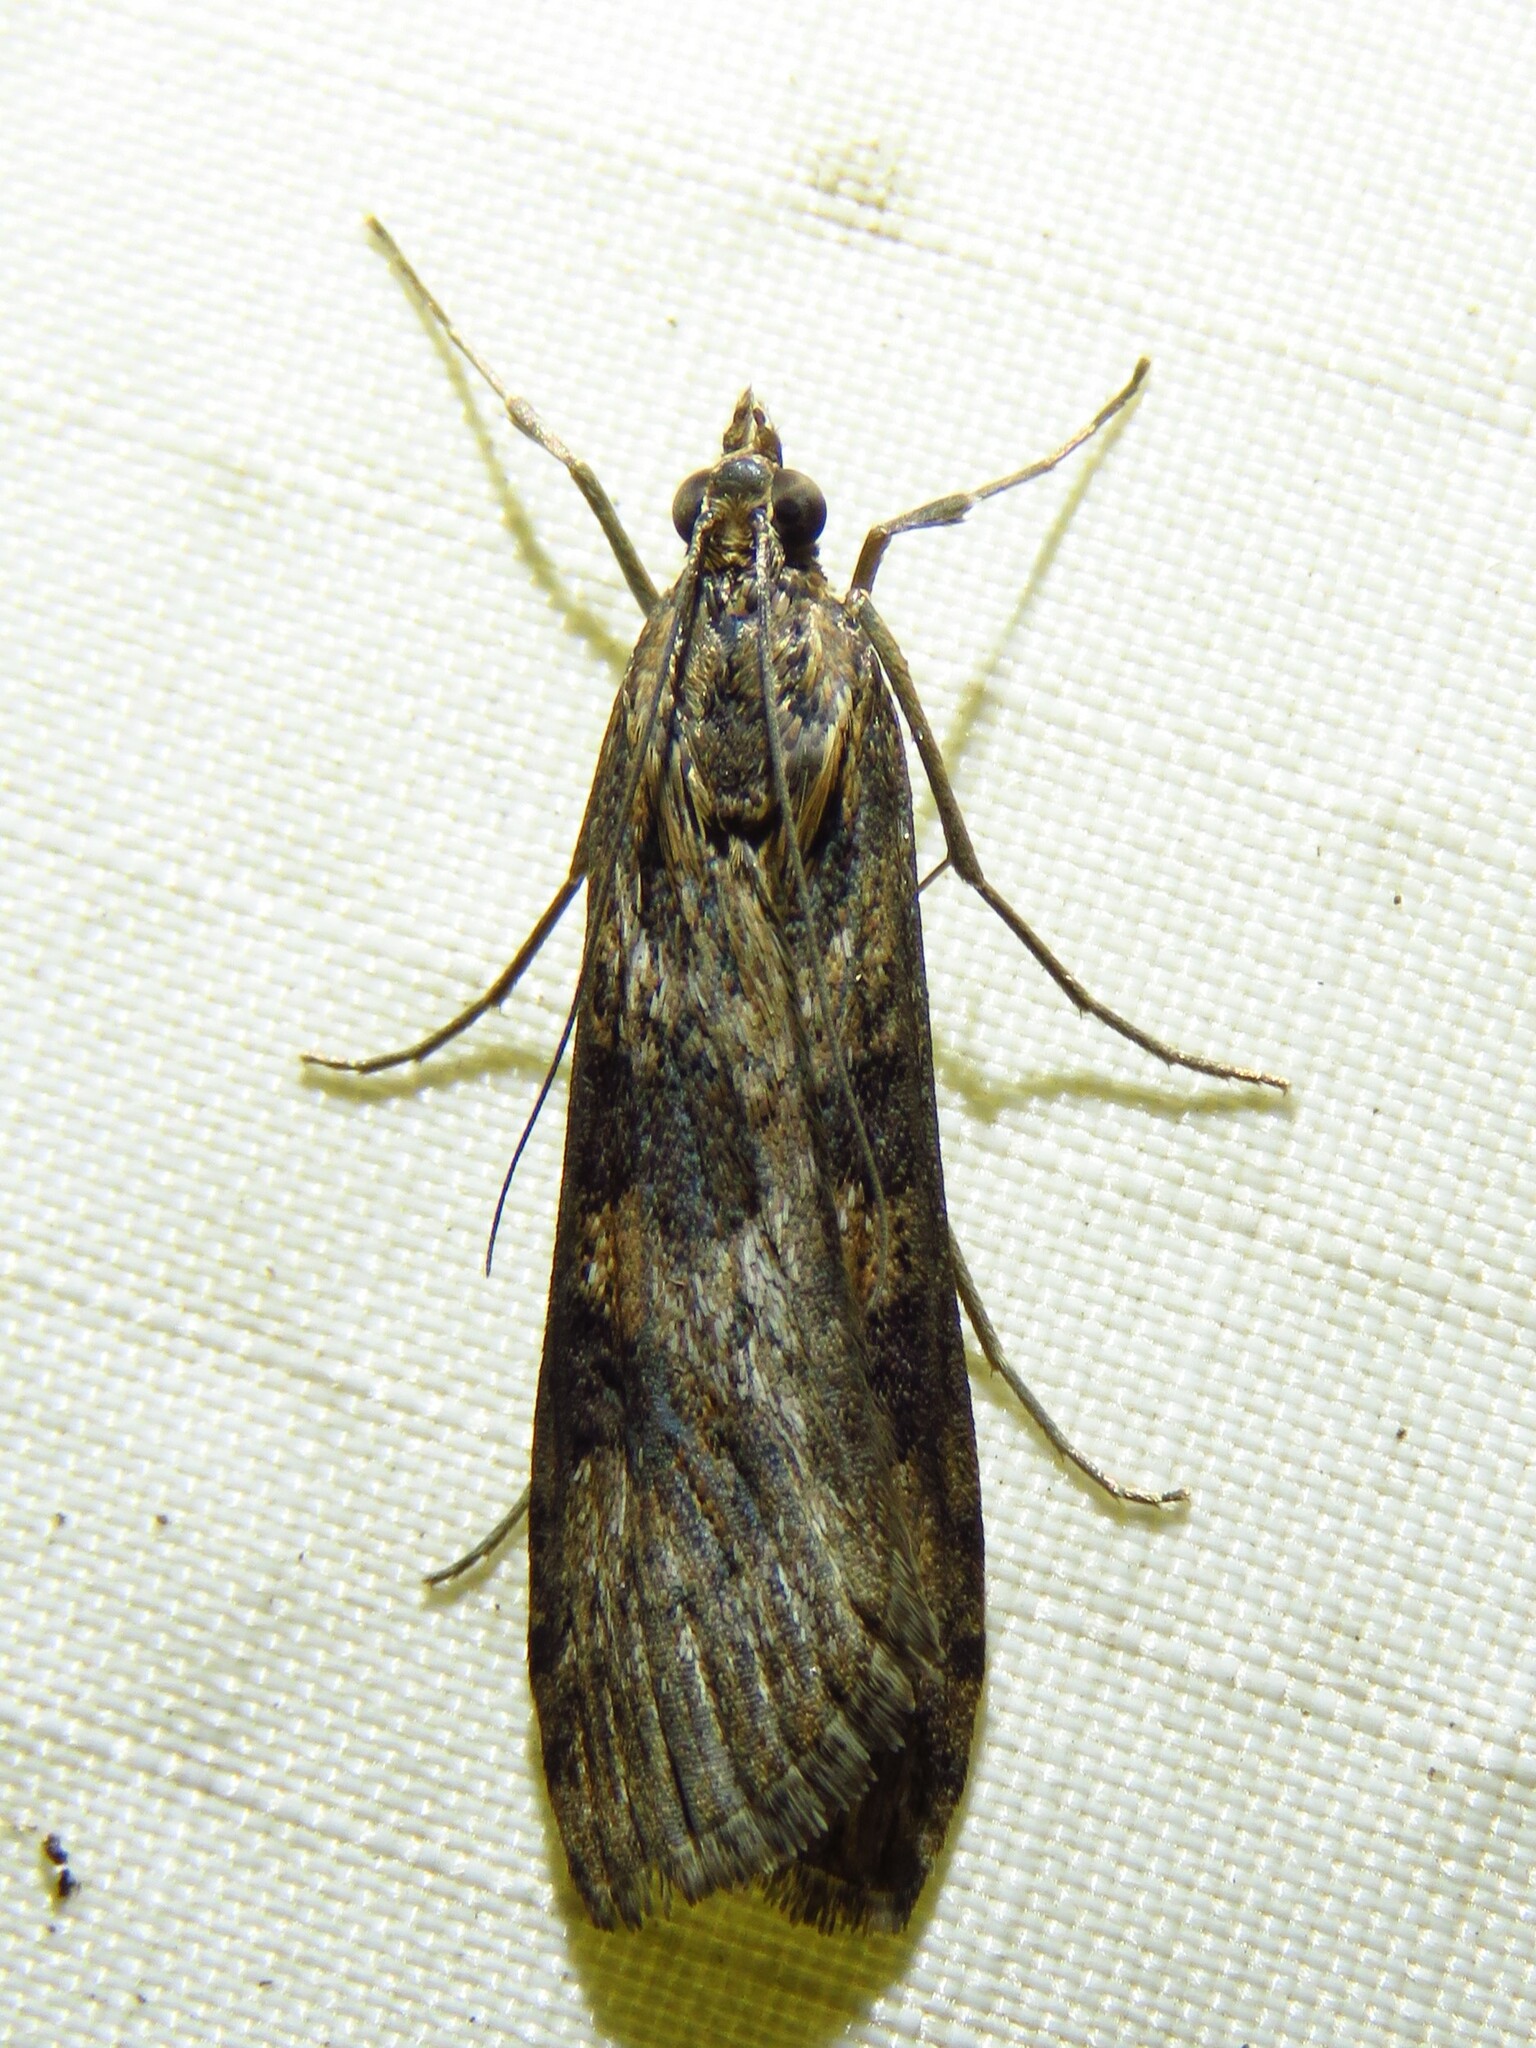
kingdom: Animalia
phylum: Arthropoda
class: Insecta
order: Lepidoptera
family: Crambidae
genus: Nomophila
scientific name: Nomophila nearctica
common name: American rush veneer
